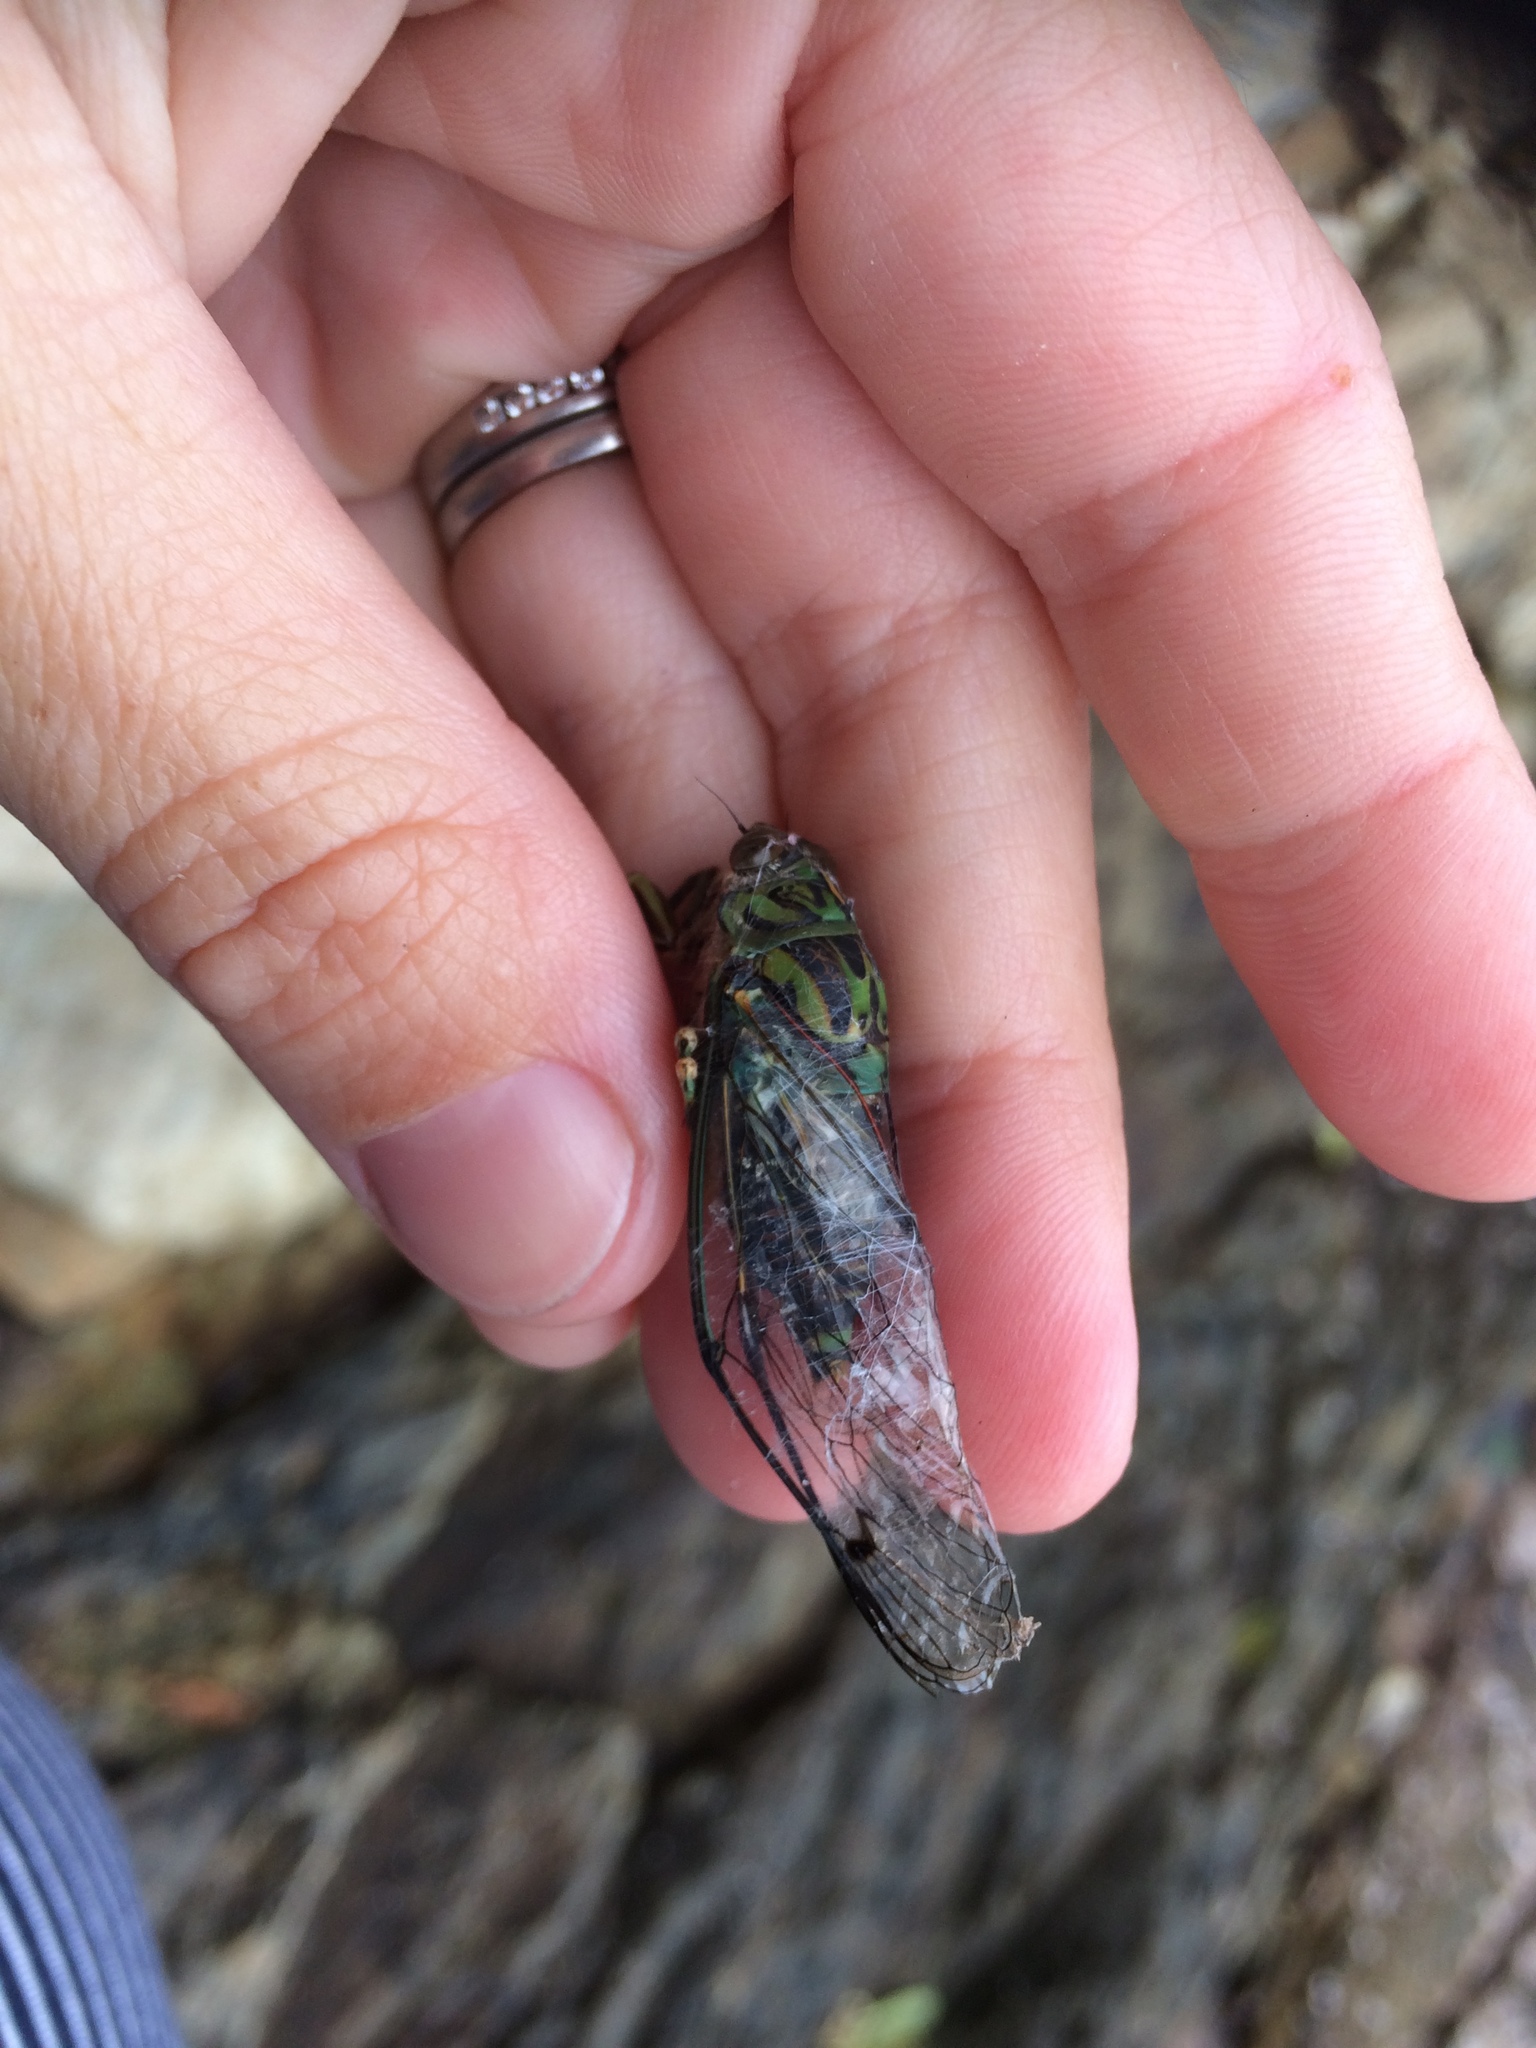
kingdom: Animalia
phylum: Arthropoda
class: Insecta
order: Hemiptera
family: Cicadidae
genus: Amphipsalta
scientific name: Amphipsalta zelandica
